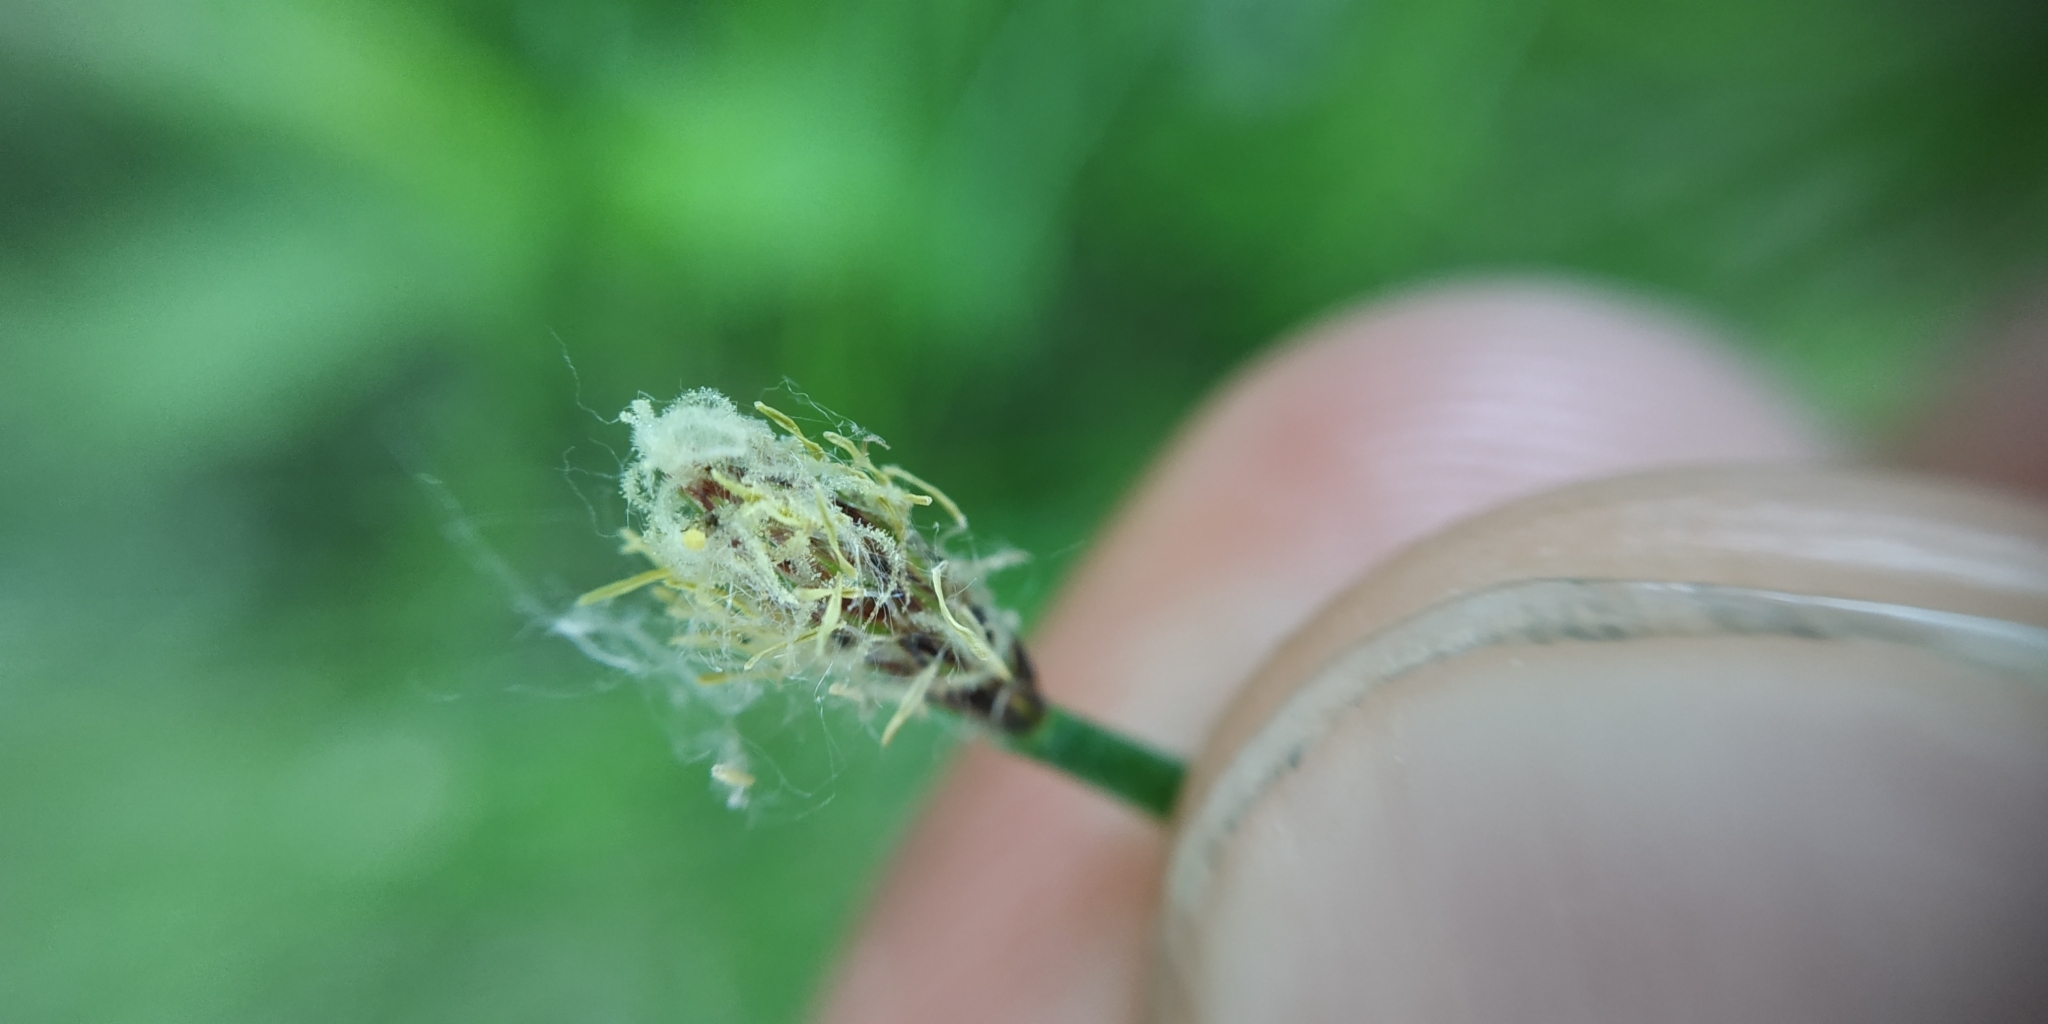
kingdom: Plantae
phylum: Tracheophyta
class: Liliopsida
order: Poales
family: Cyperaceae
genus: Eleocharis
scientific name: Eleocharis palustris
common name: Common spike-rush
